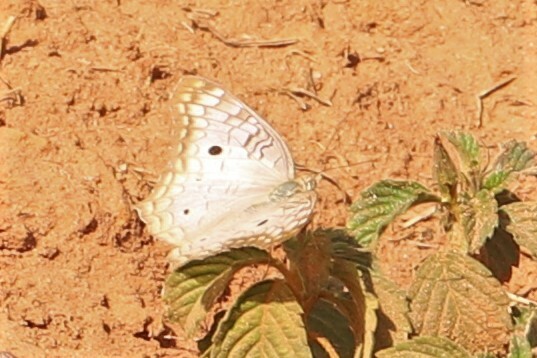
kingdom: Animalia
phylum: Arthropoda
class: Insecta
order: Lepidoptera
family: Nymphalidae
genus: Anartia
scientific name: Anartia jatrophae
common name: White peacock
